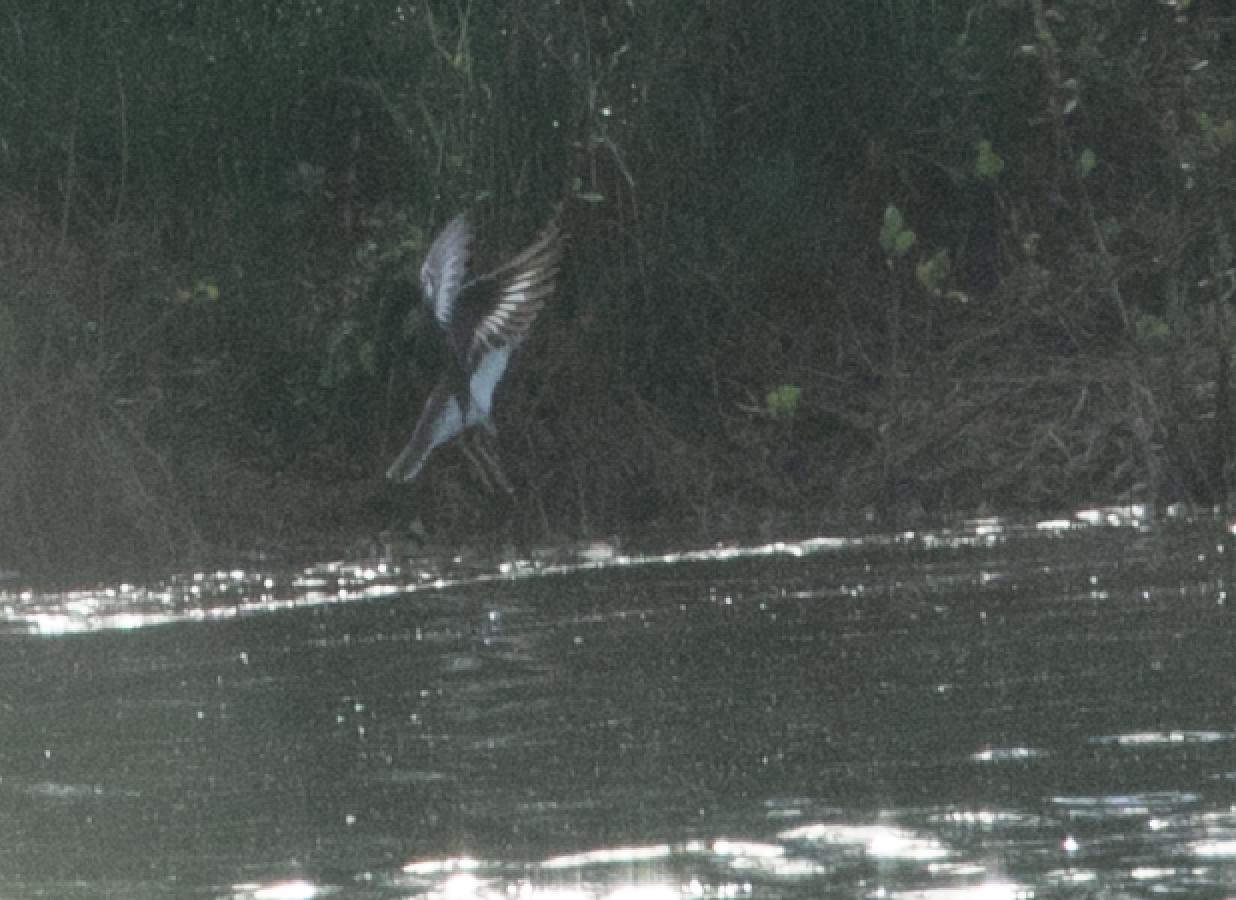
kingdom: Animalia
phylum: Chordata
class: Aves
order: Charadriiformes
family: Scolopacidae
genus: Actitis
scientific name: Actitis hypoleucos
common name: Common sandpiper
